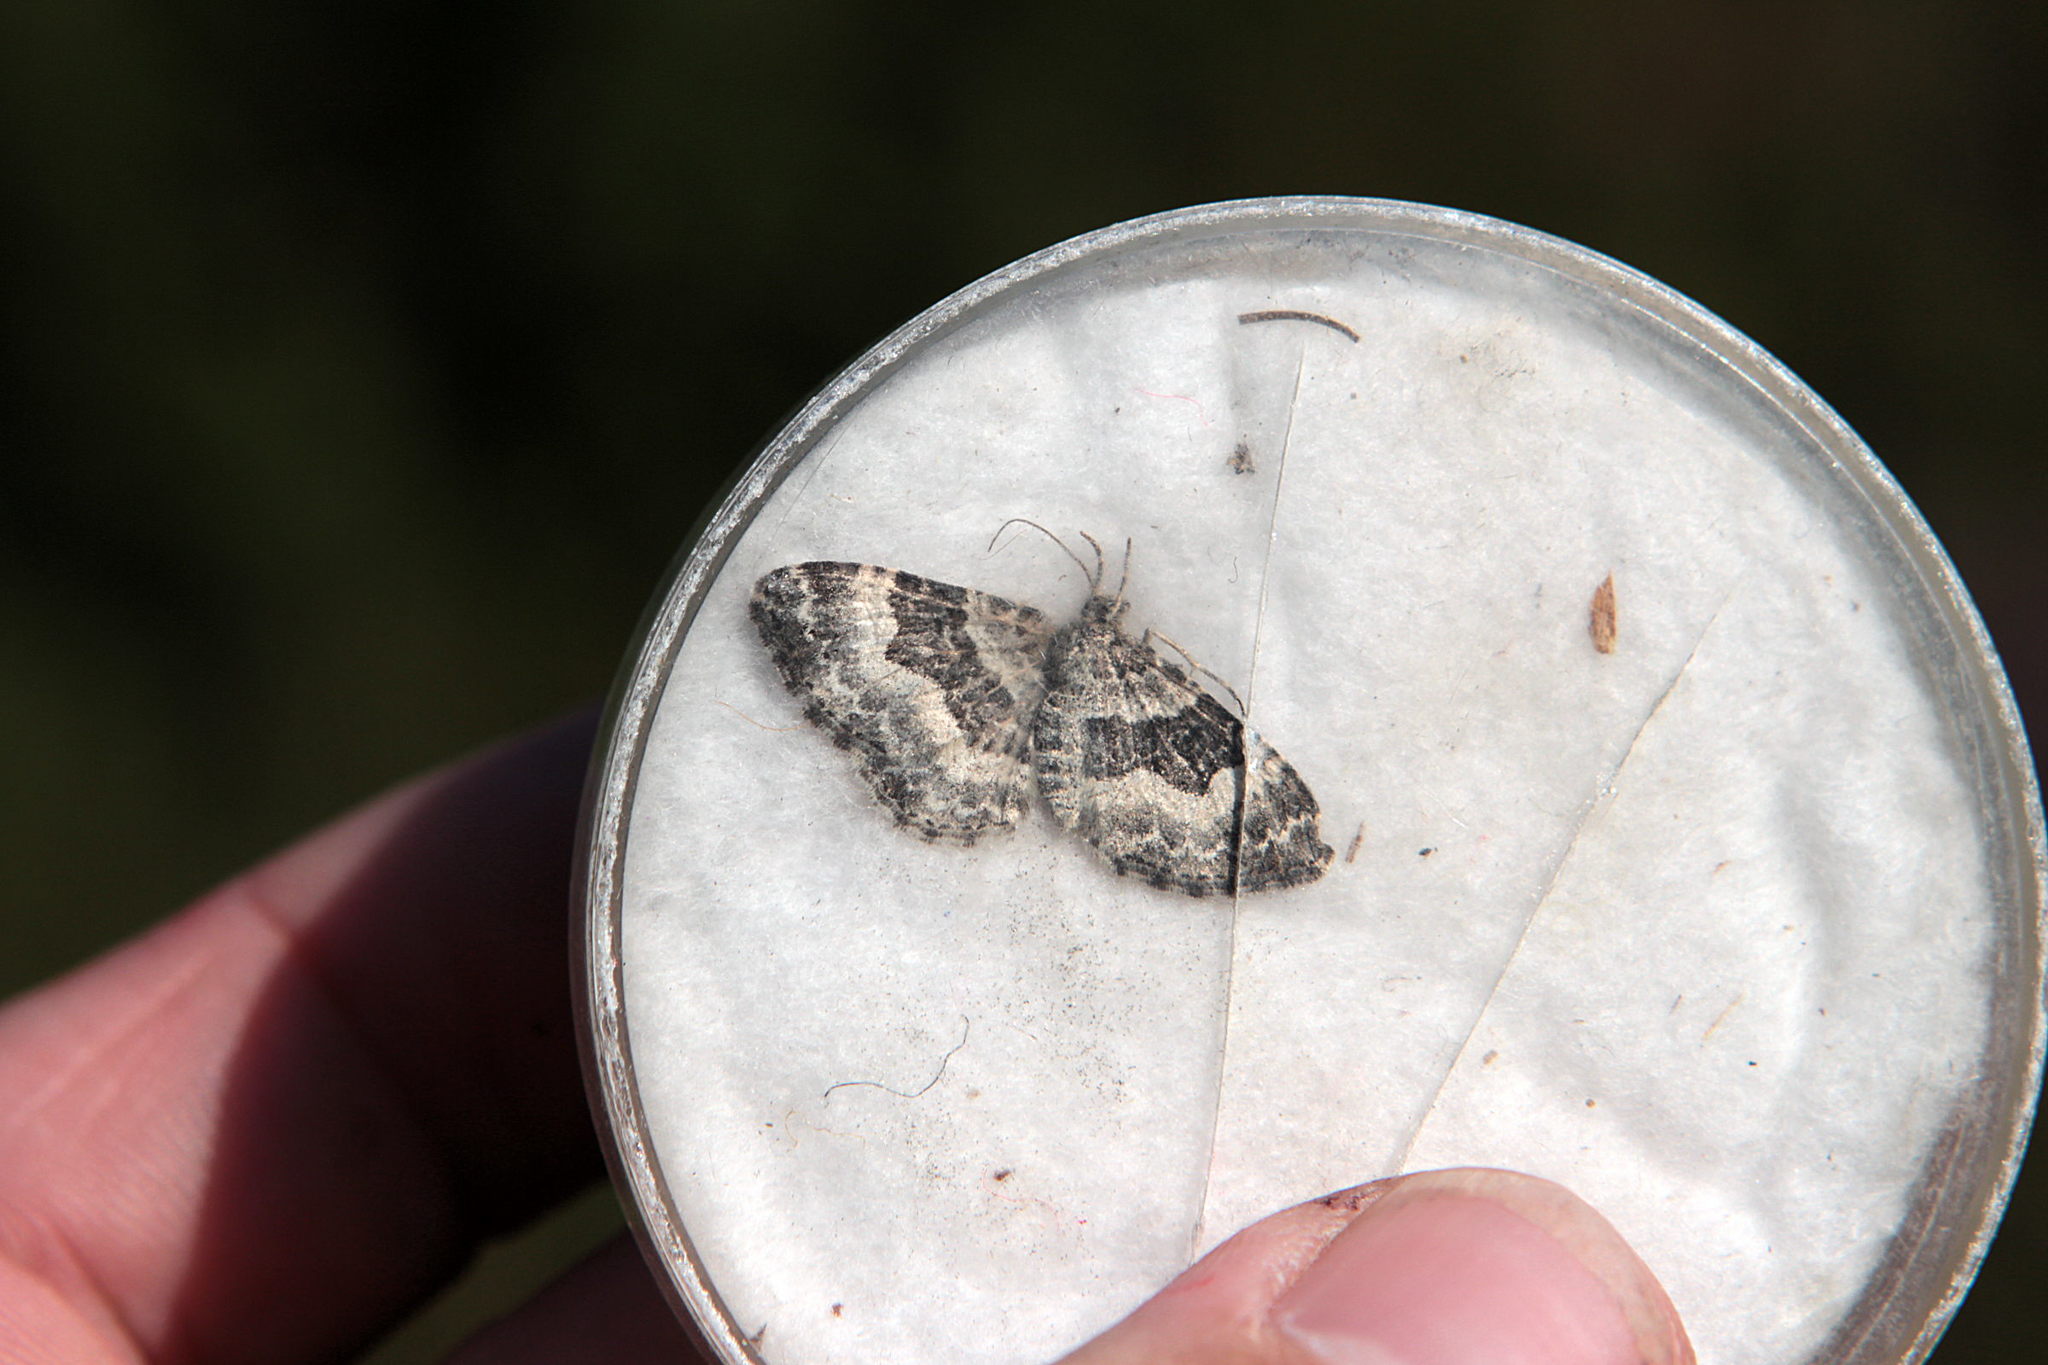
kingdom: Animalia
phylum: Arthropoda
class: Insecta
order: Lepidoptera
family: Geometridae
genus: Epirrhoe
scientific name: Epirrhoe alternata
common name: Common carpet
